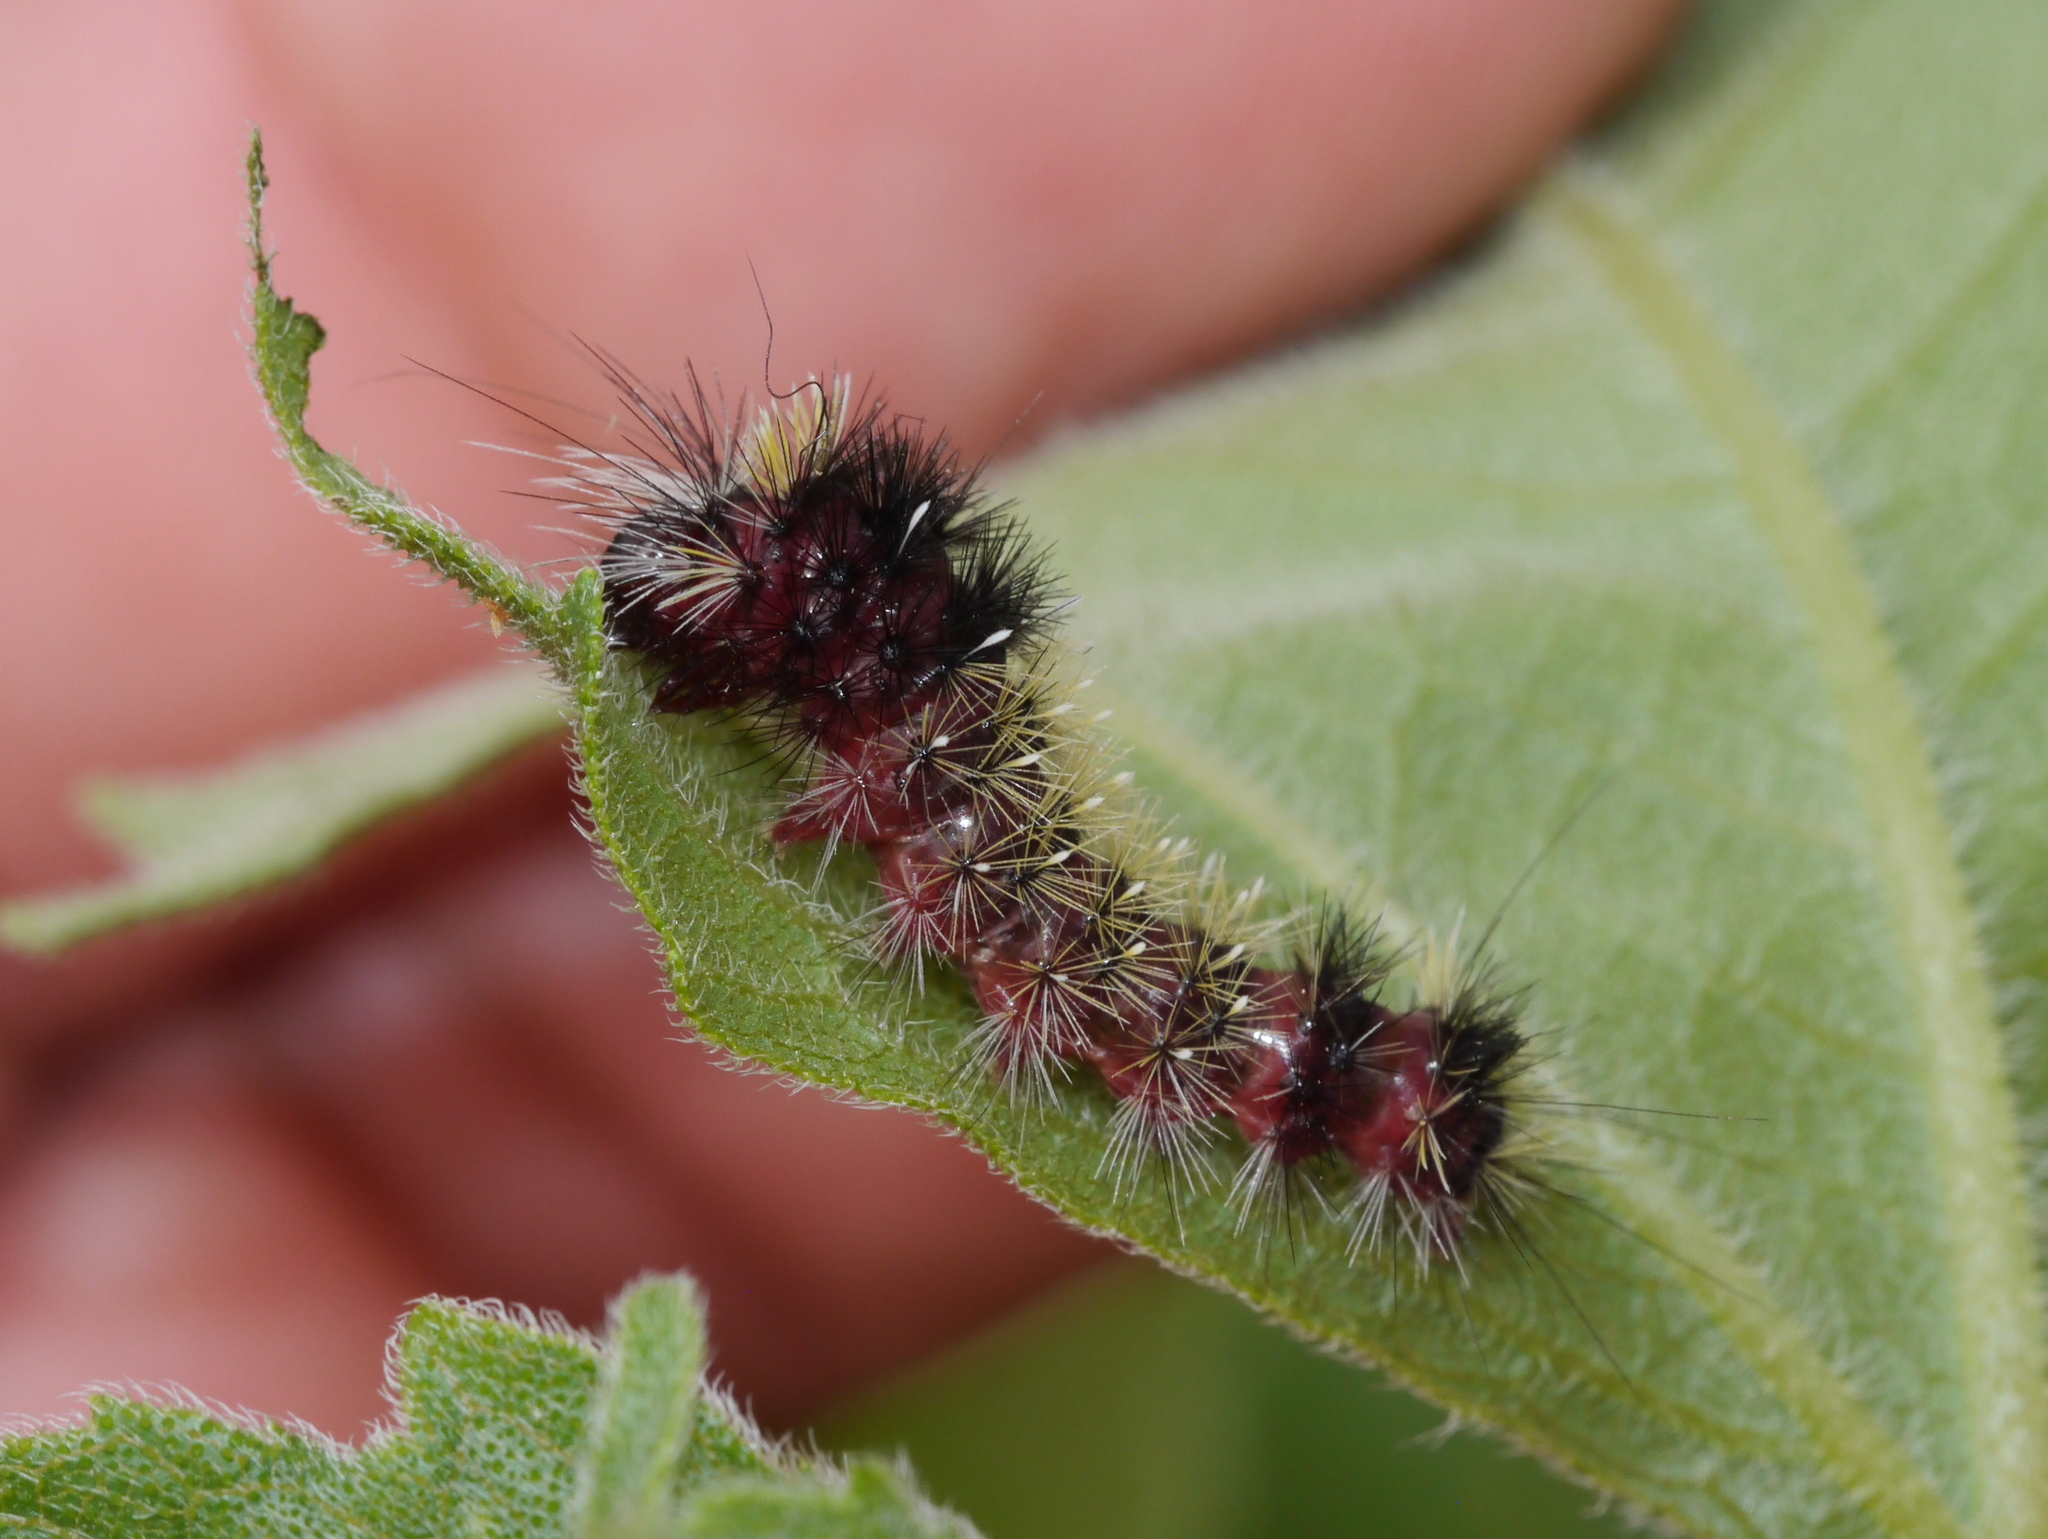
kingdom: Animalia
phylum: Arthropoda
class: Insecta
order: Lepidoptera
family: Erebidae
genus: Hypocrisias
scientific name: Hypocrisias minima
